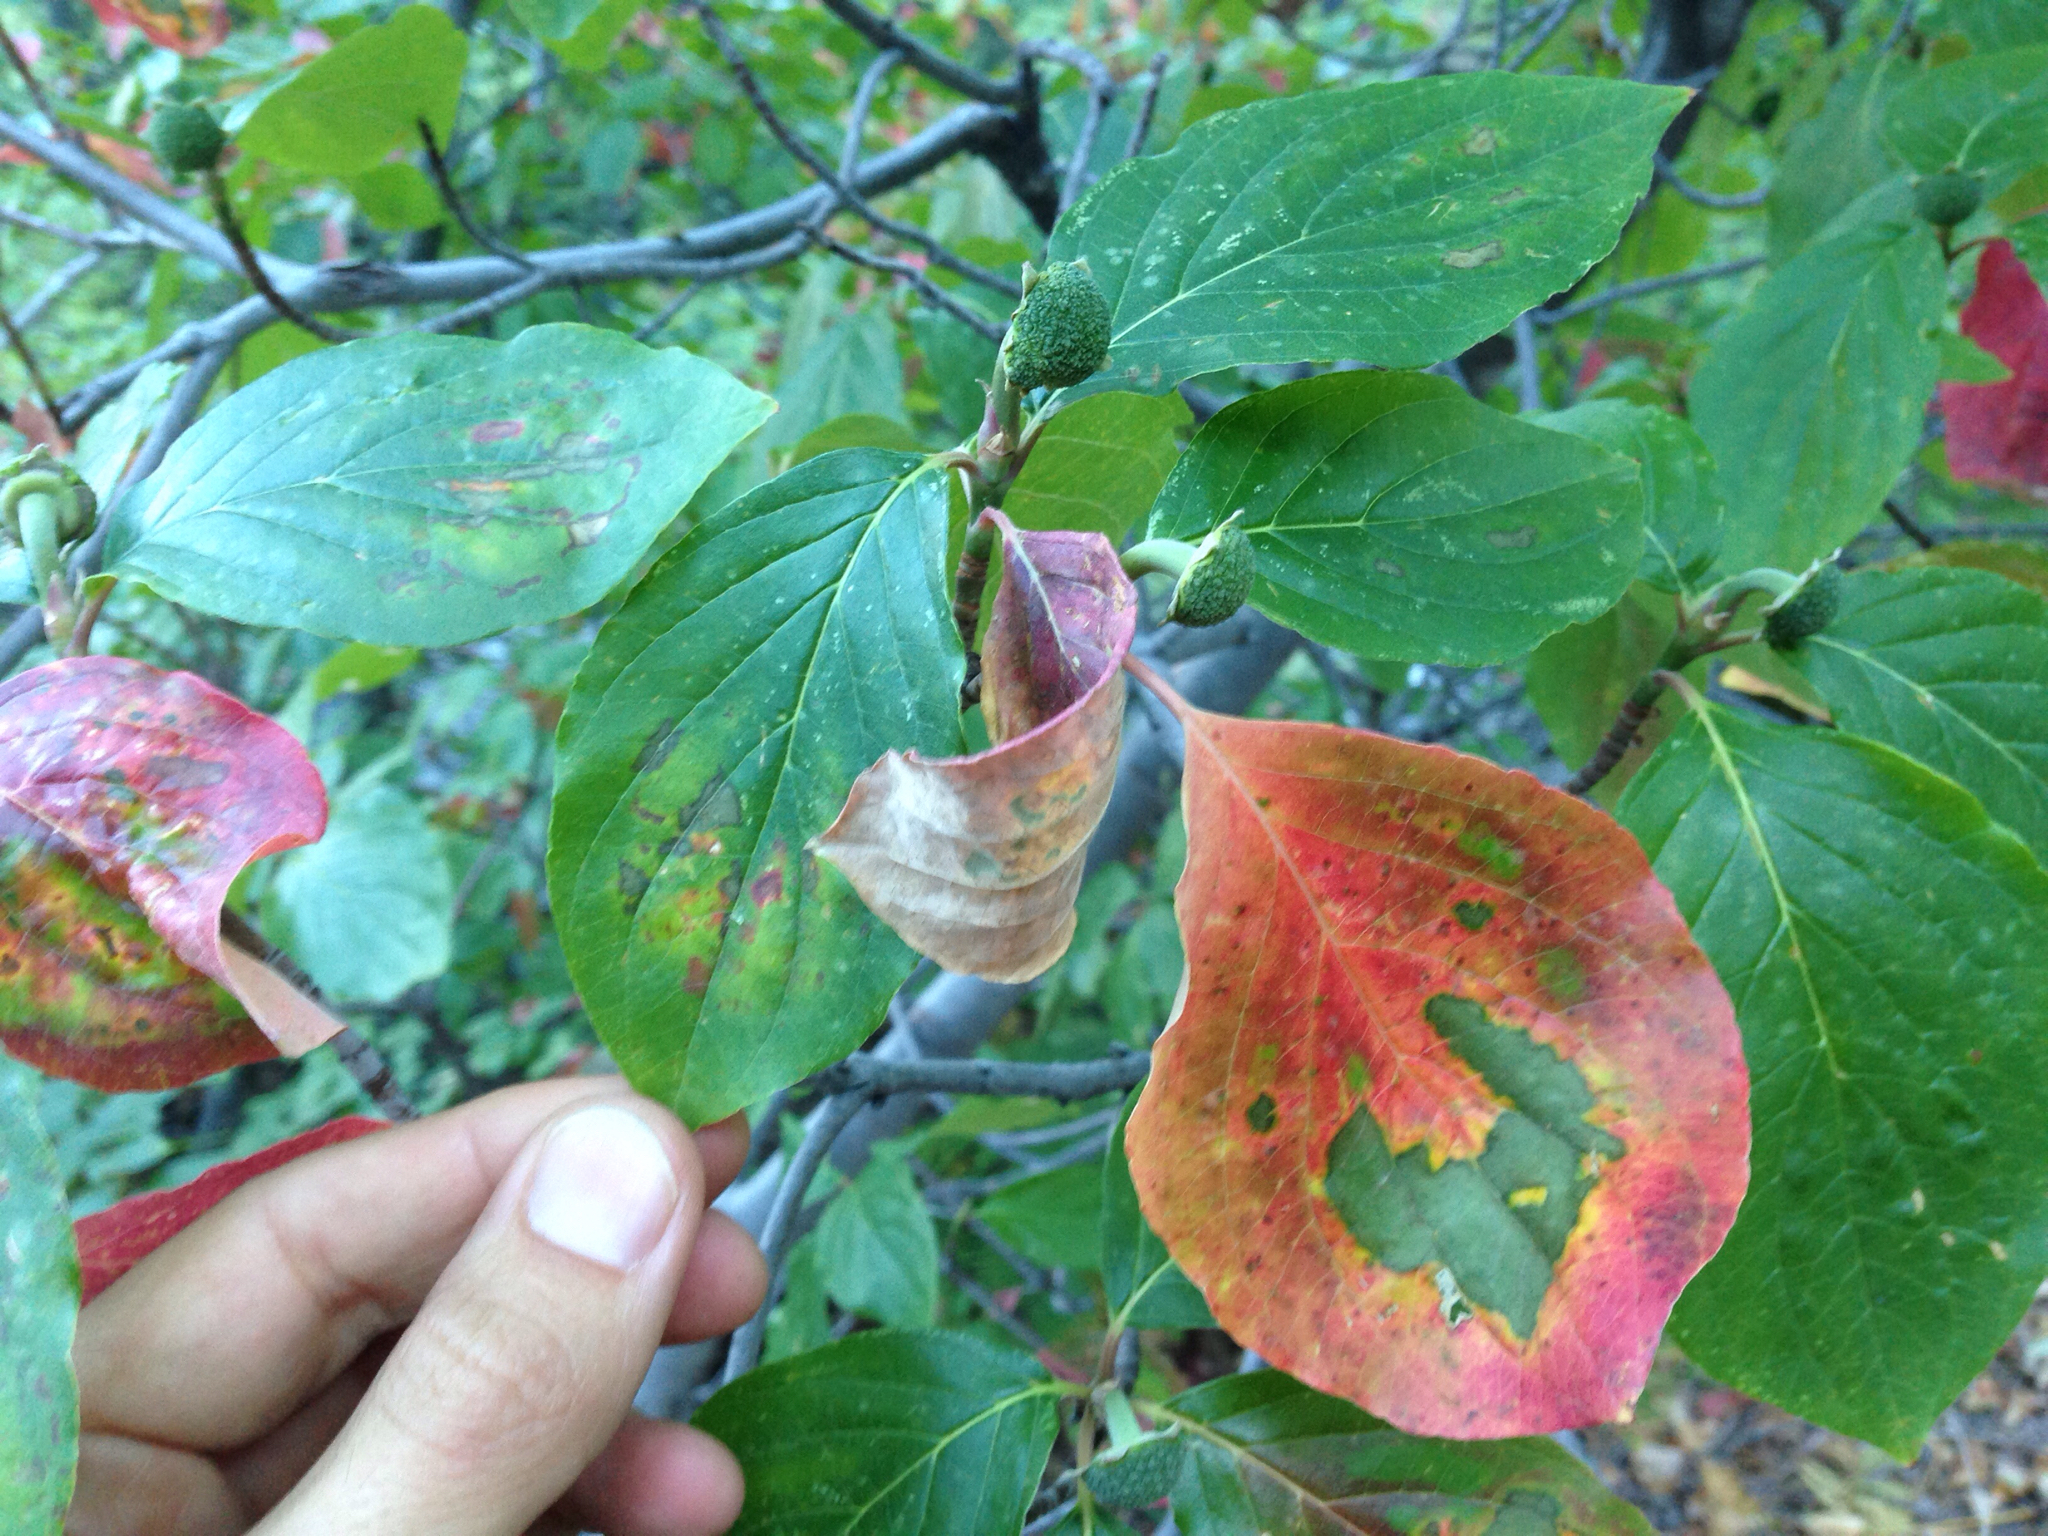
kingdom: Plantae
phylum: Tracheophyta
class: Magnoliopsida
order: Cornales
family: Cornaceae
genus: Cornus
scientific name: Cornus nuttallii
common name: Pacific dogwood
